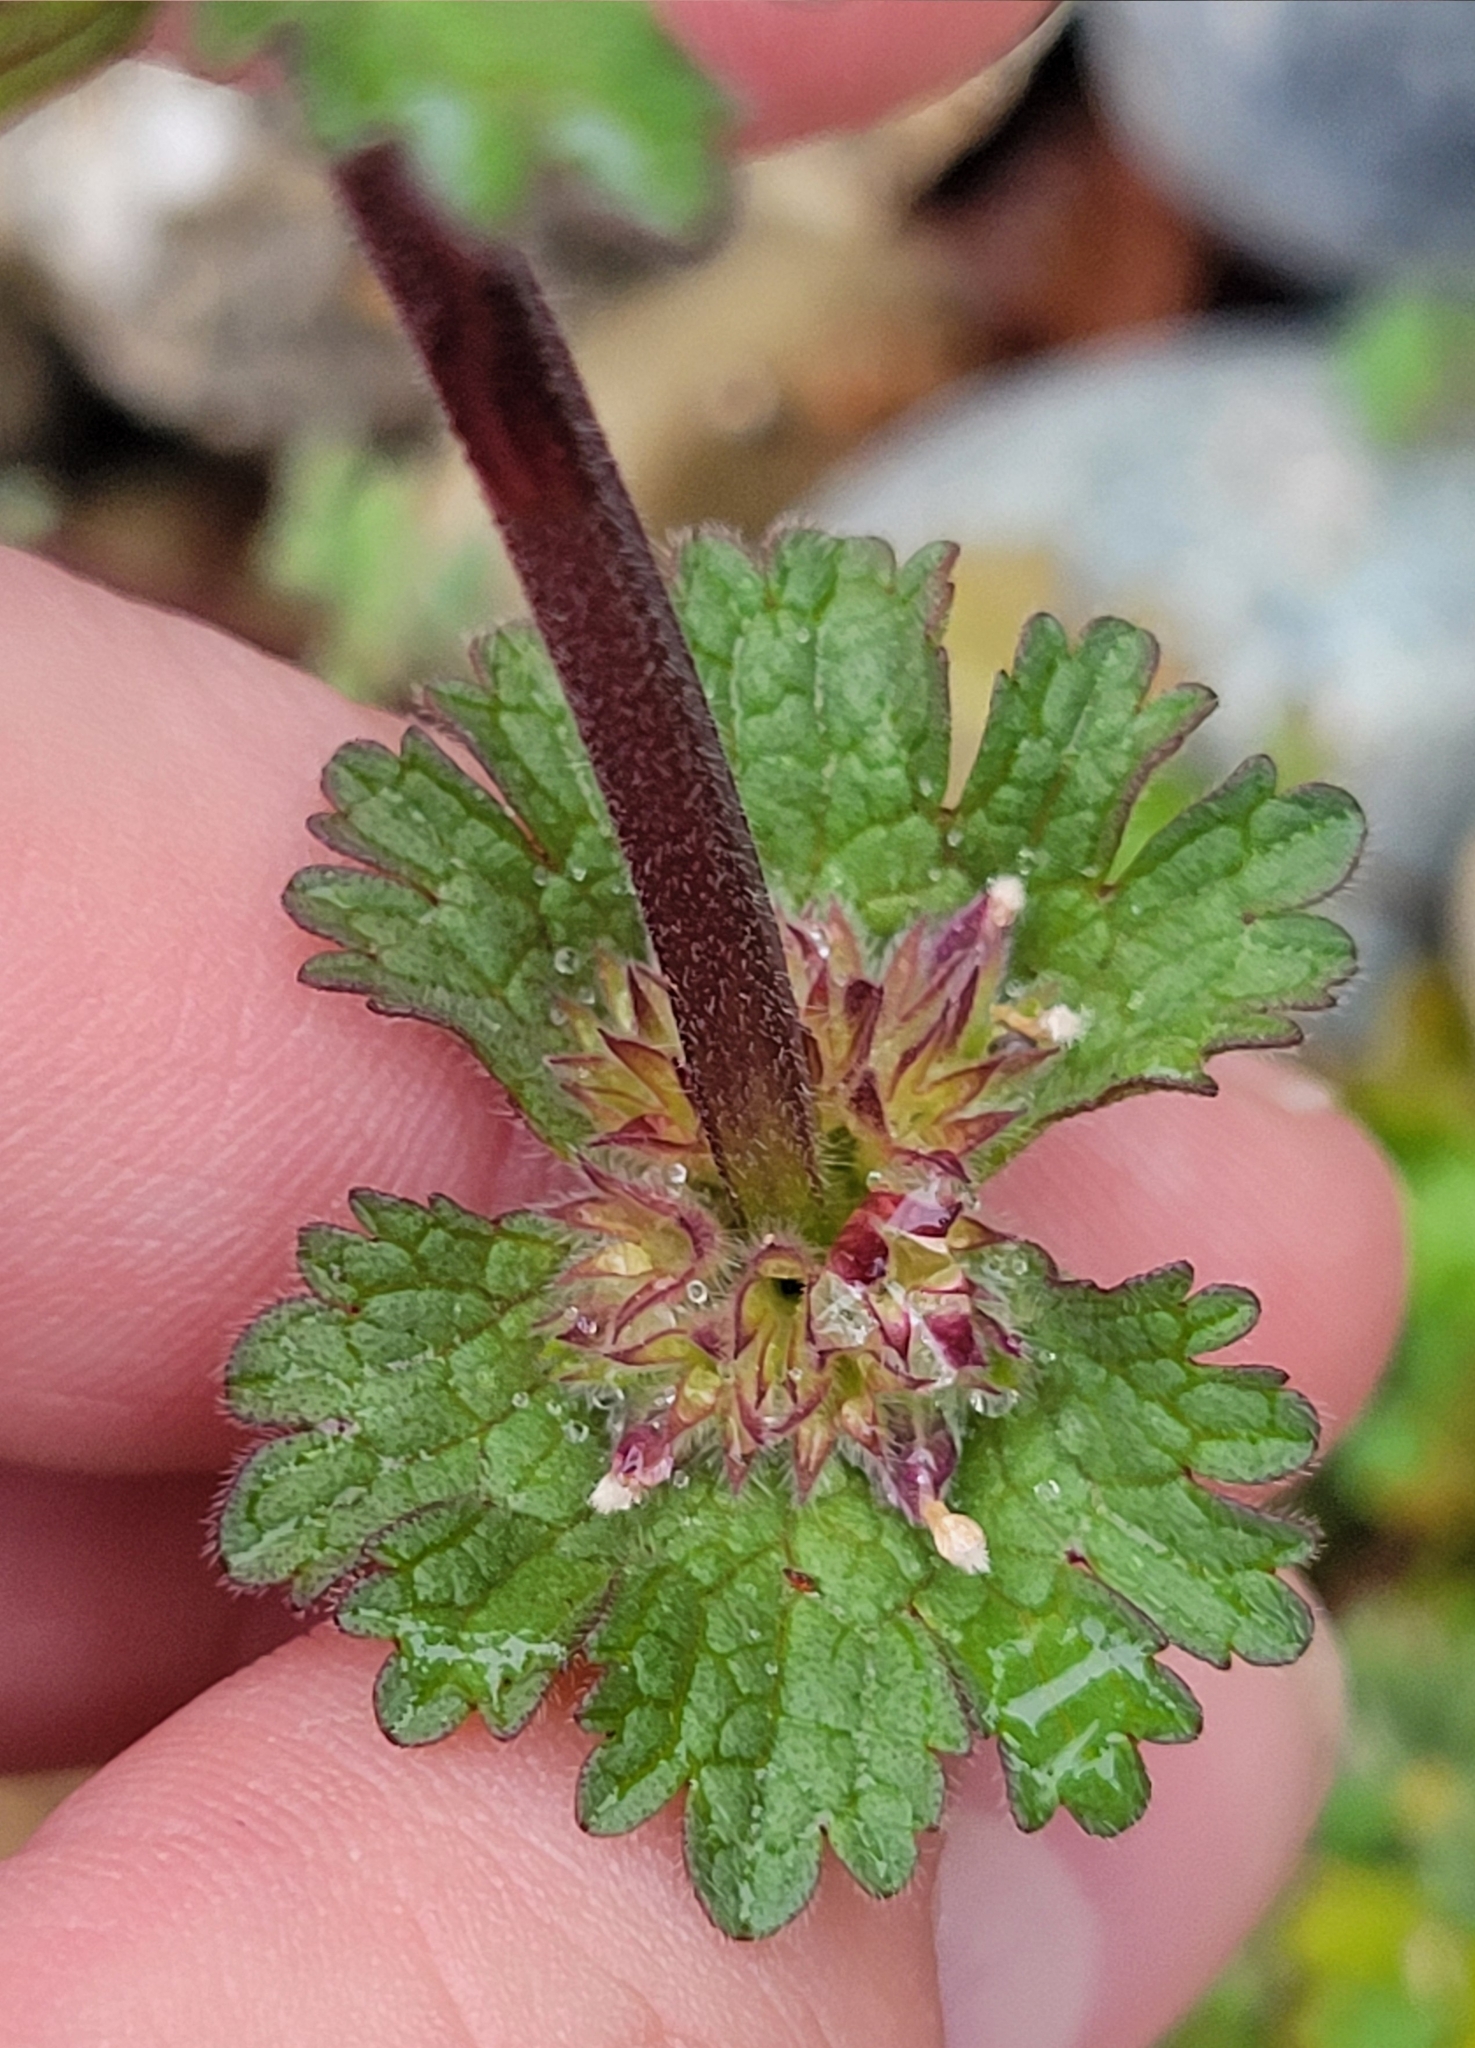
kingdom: Plantae
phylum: Tracheophyta
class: Magnoliopsida
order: Lamiales
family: Lamiaceae
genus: Lamium
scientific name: Lamium amplexicaule
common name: Henbit dead-nettle
